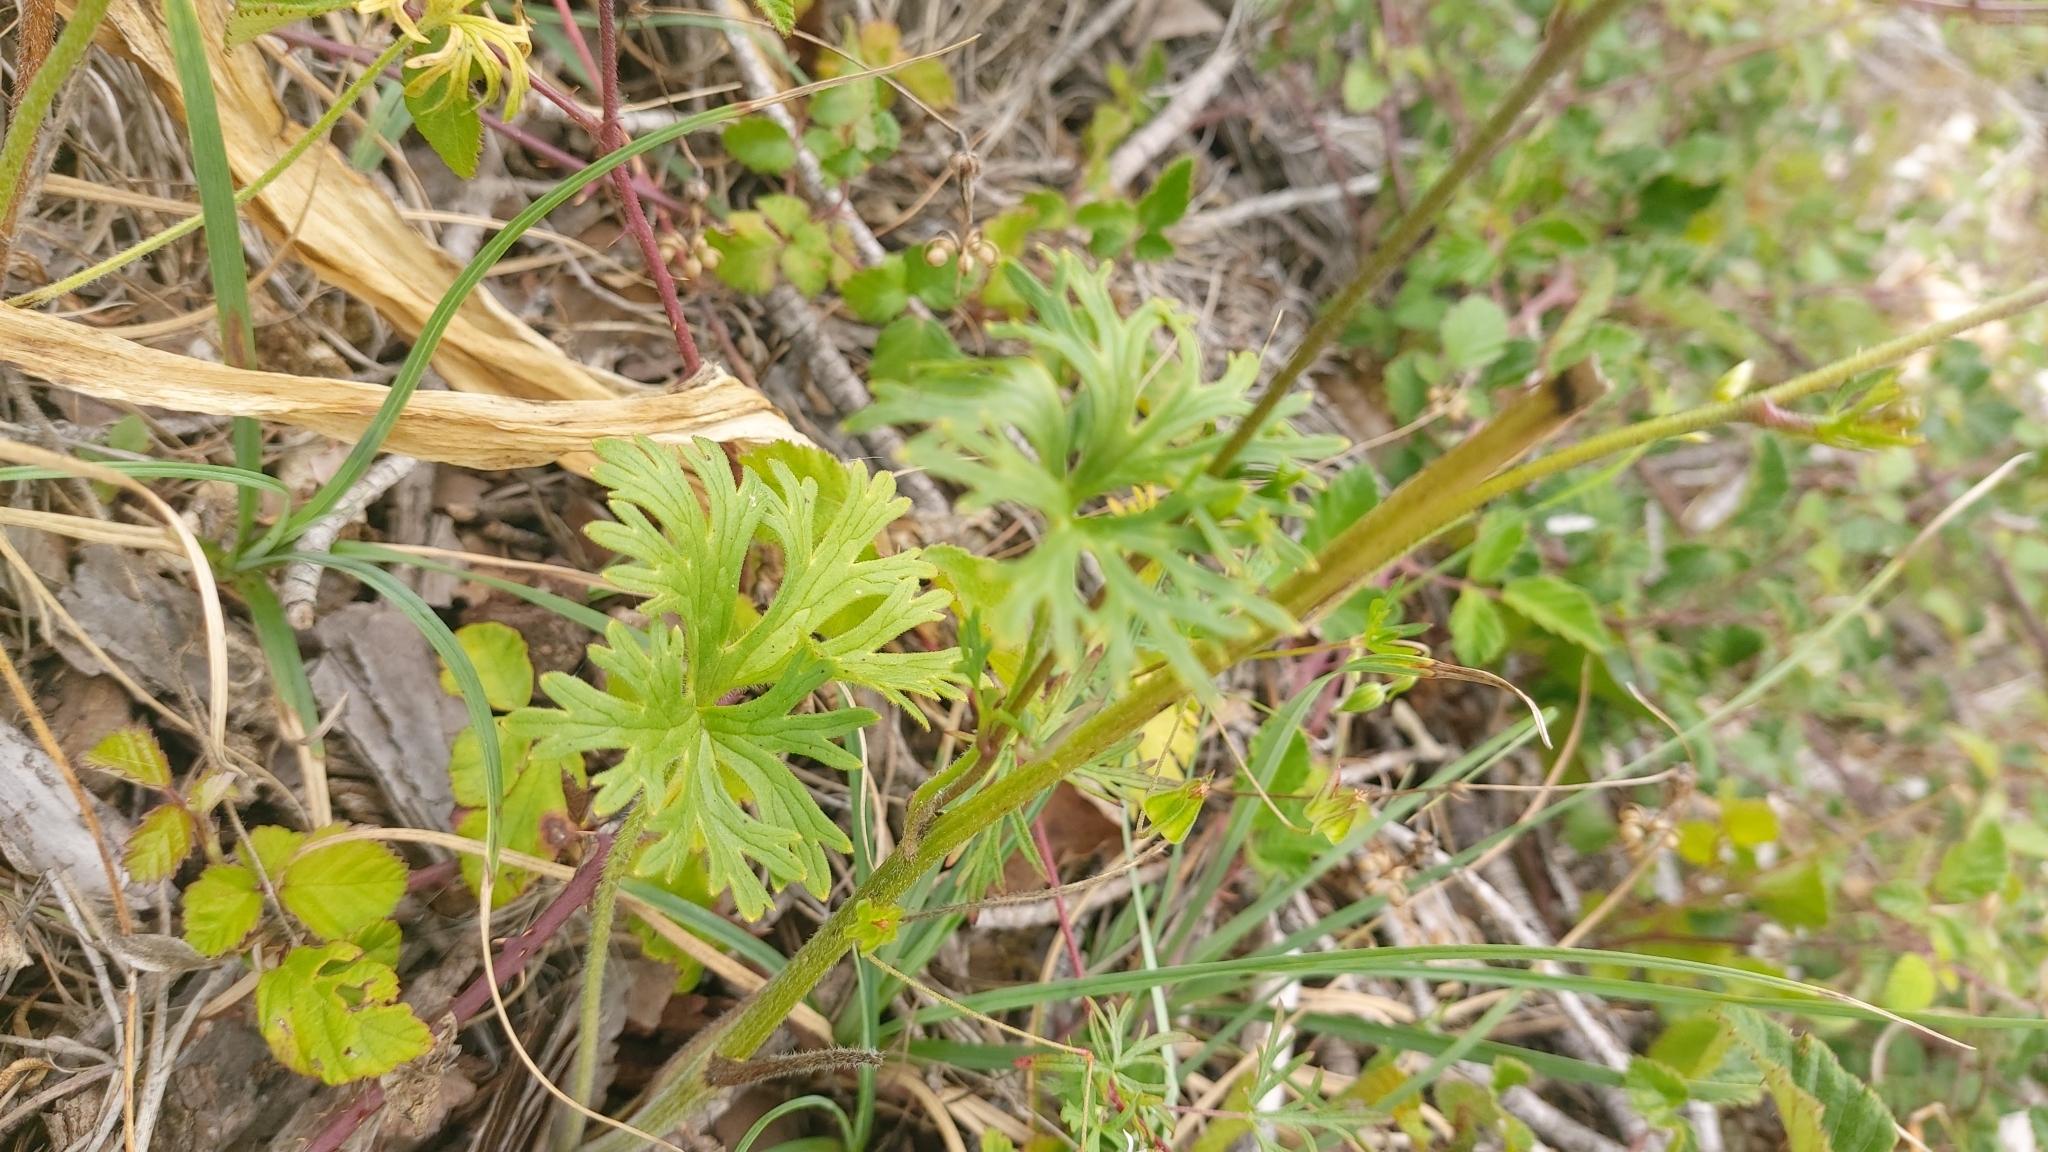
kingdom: Plantae
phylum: Tracheophyta
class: Magnoliopsida
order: Ranunculales
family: Ranunculaceae
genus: Delphinium
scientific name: Delphinium pentagynum
